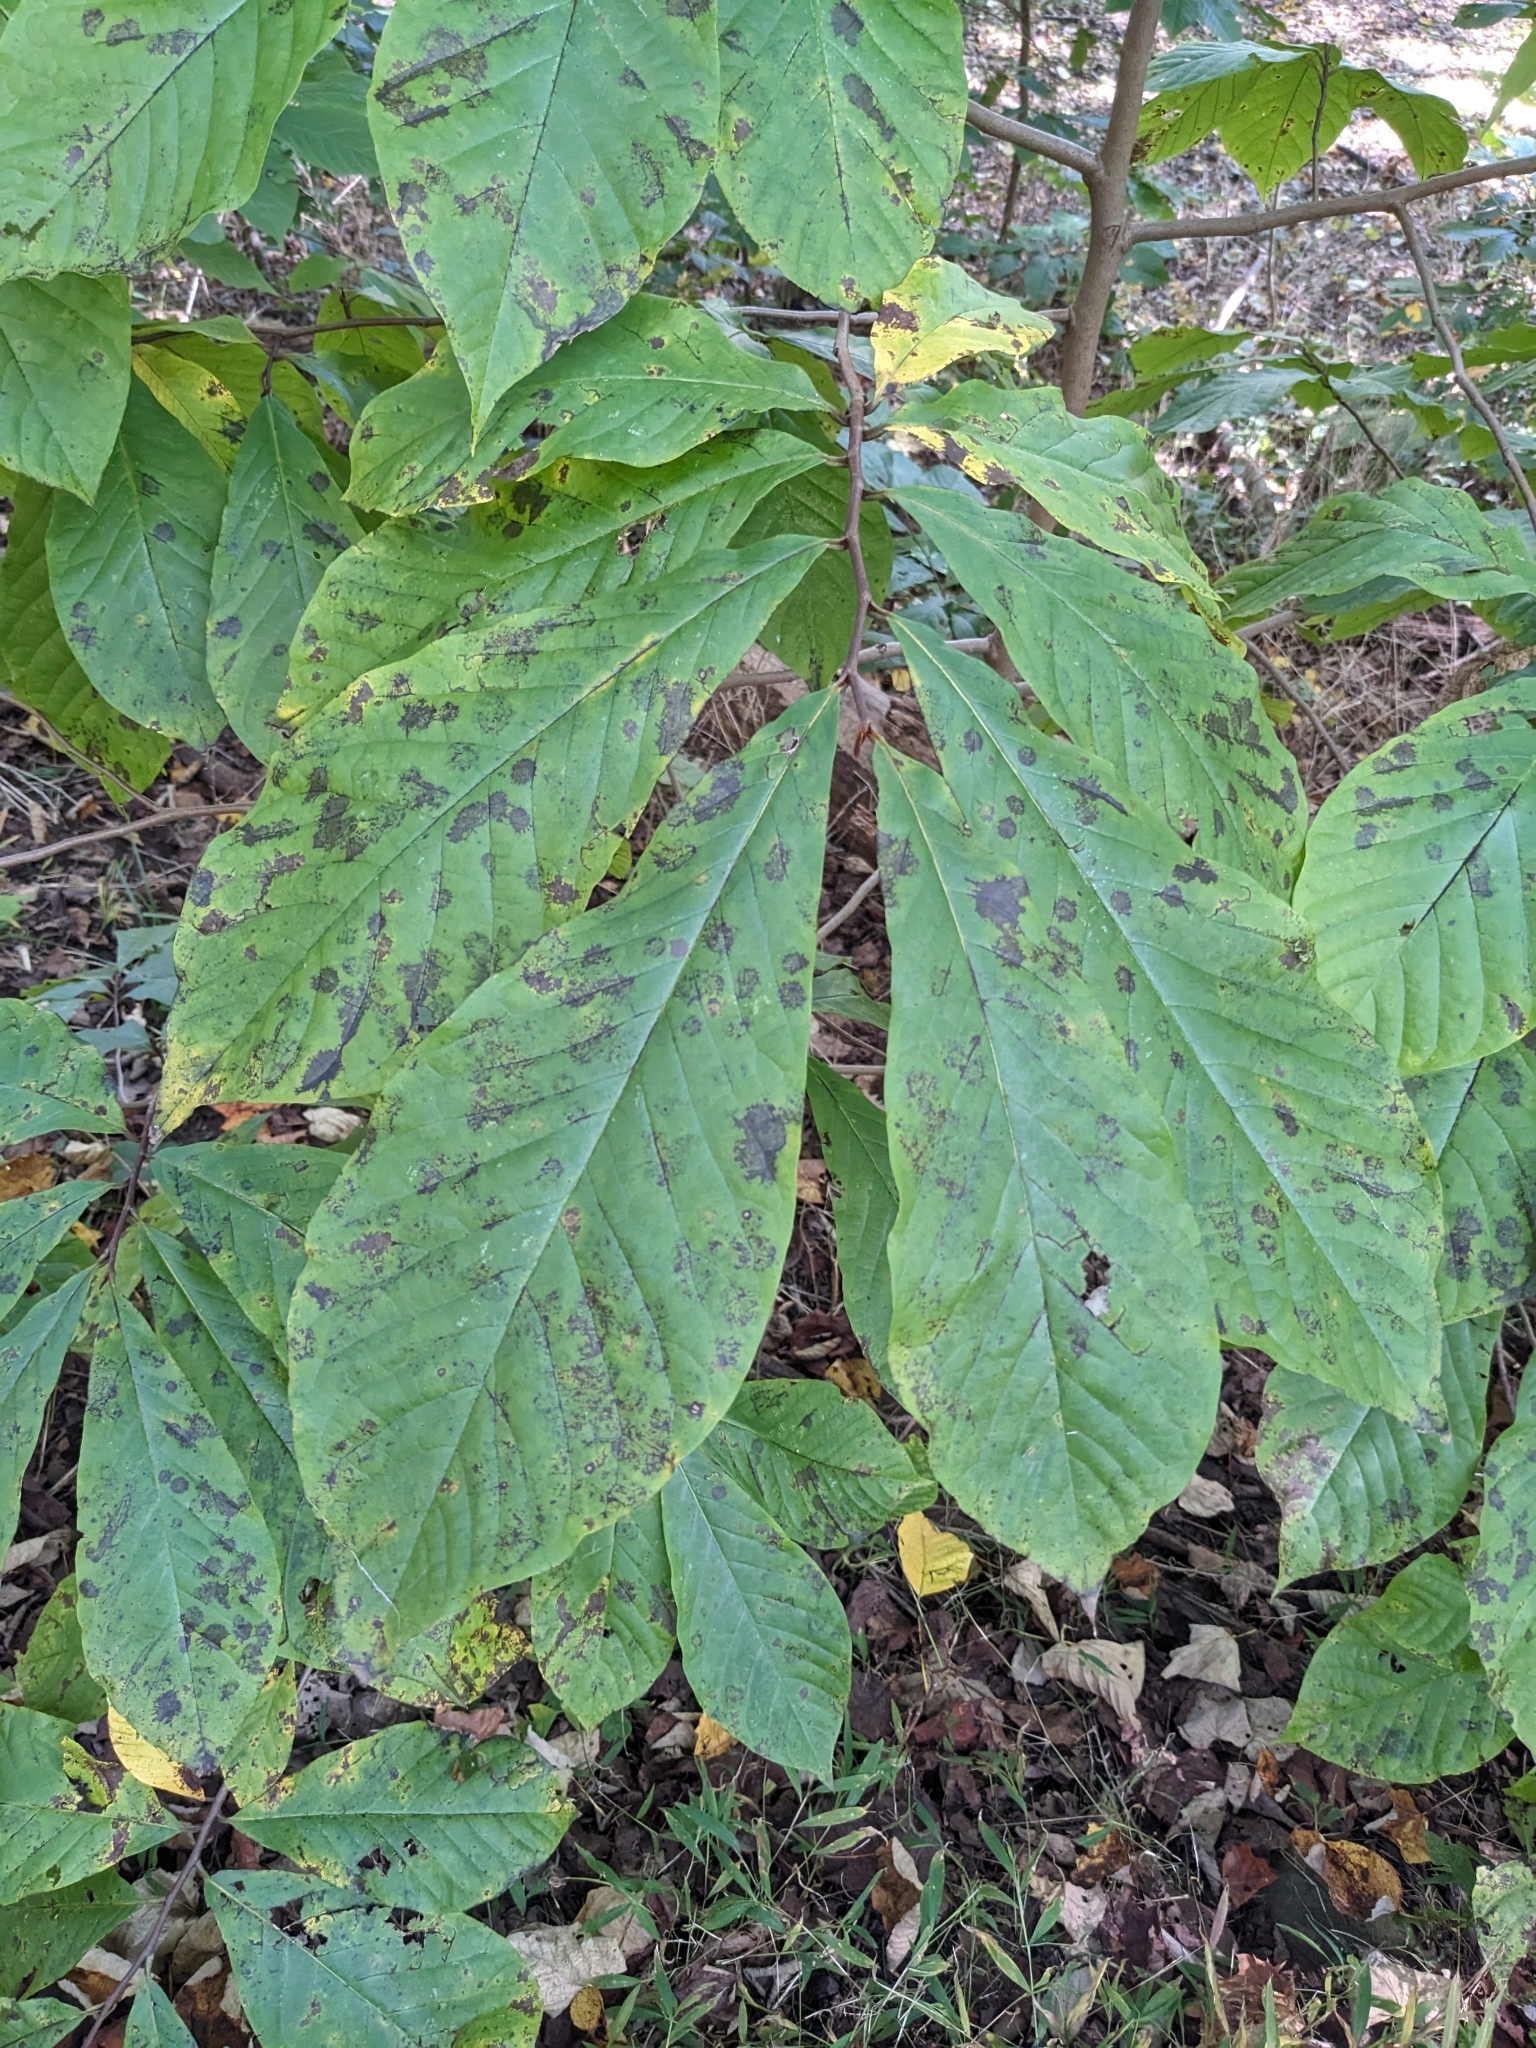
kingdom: Plantae
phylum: Tracheophyta
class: Magnoliopsida
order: Magnoliales
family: Annonaceae
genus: Asimina
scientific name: Asimina triloba
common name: Dog-banana
